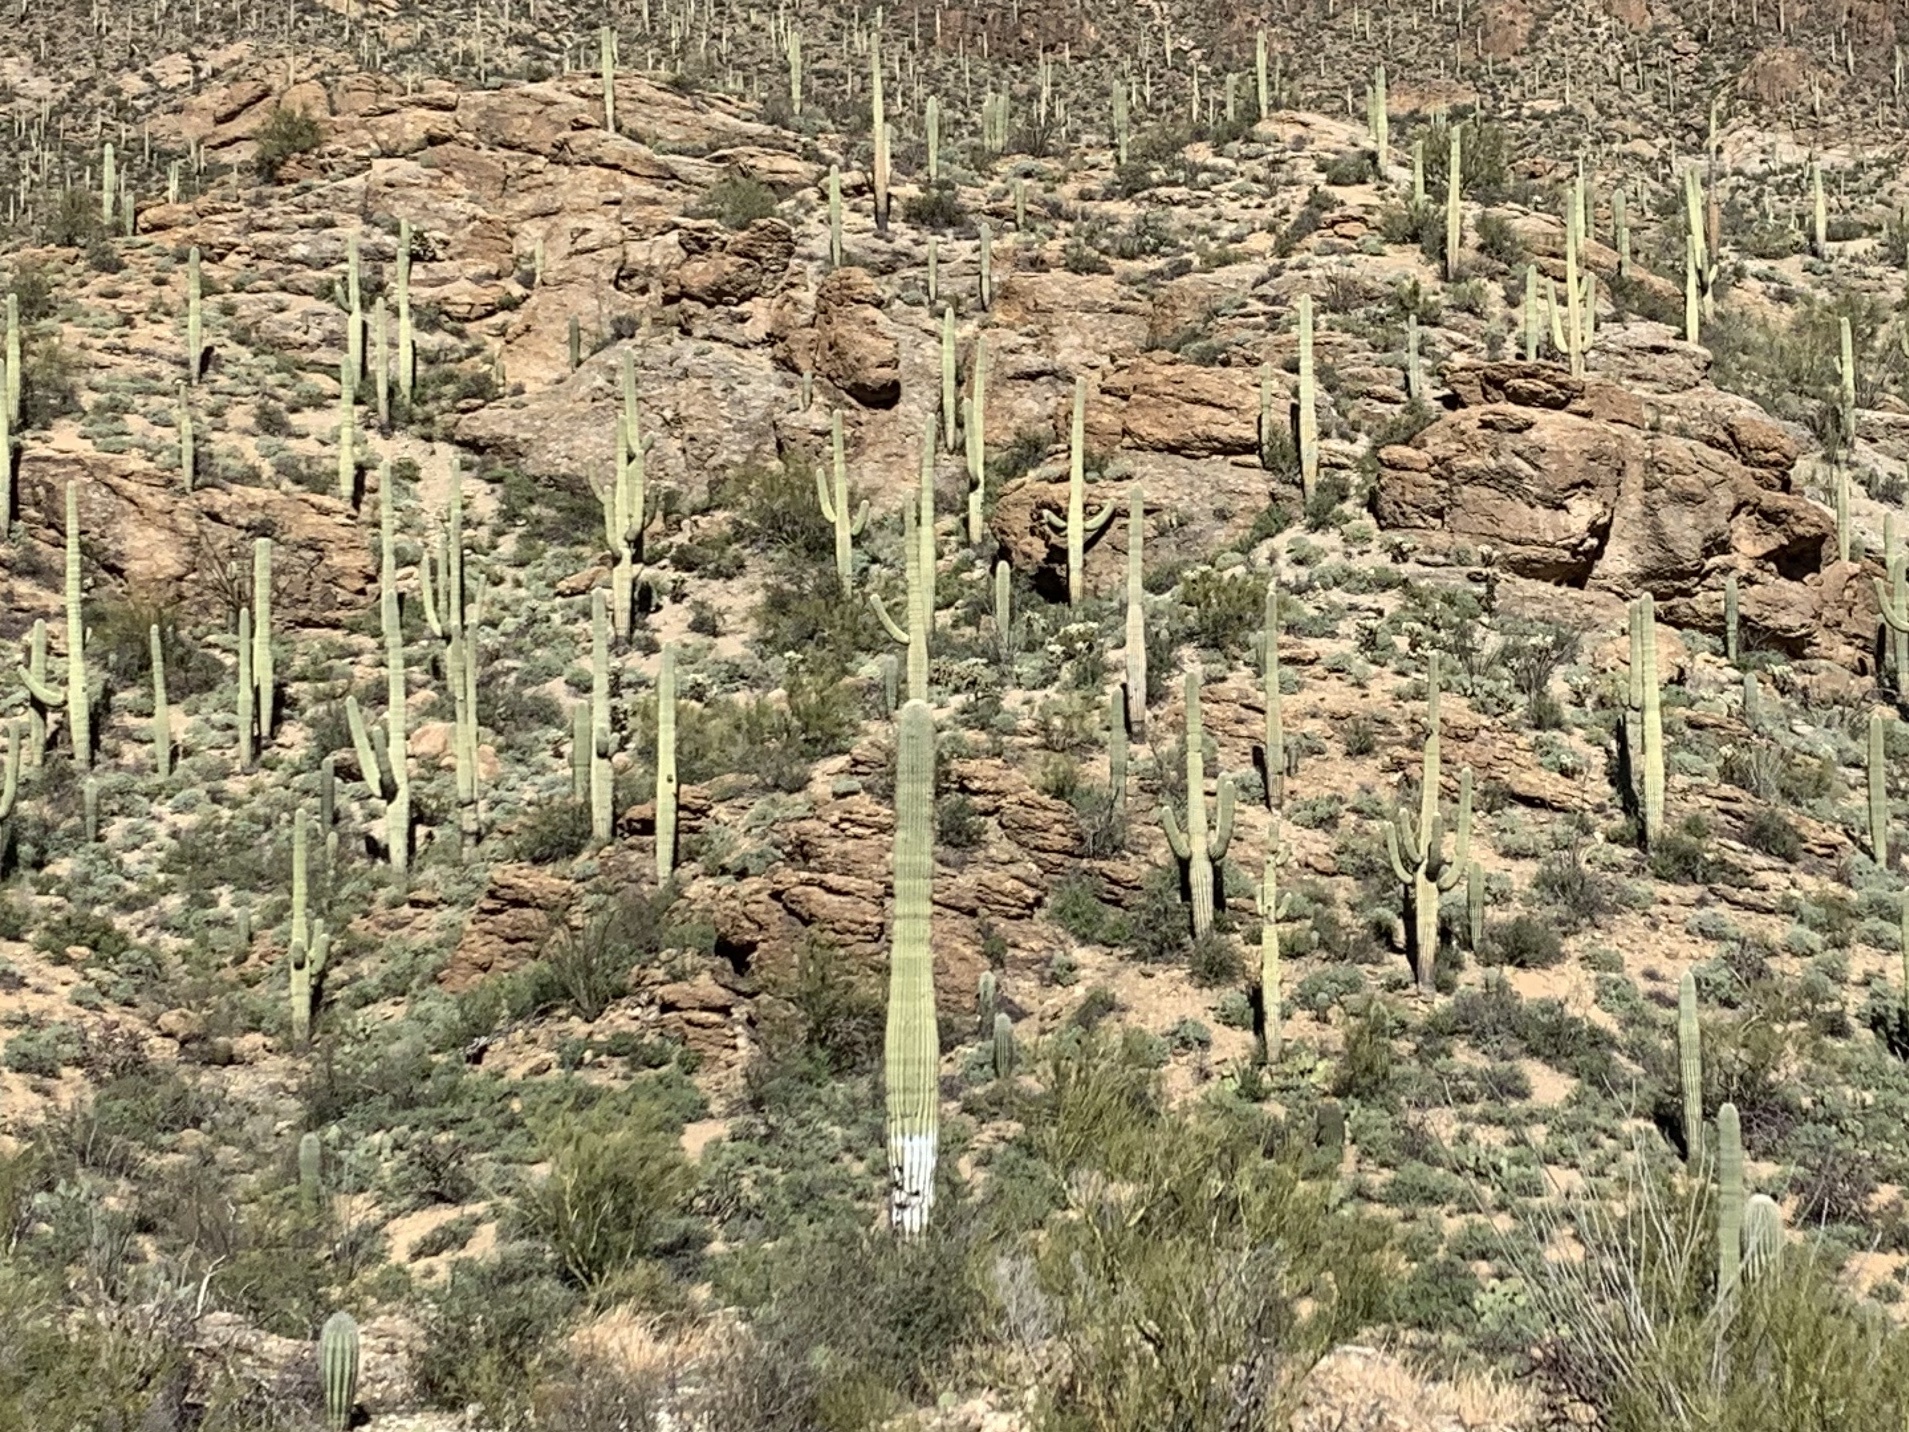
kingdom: Plantae
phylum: Tracheophyta
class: Magnoliopsida
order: Caryophyllales
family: Cactaceae
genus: Carnegiea
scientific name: Carnegiea gigantea
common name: Saguaro
